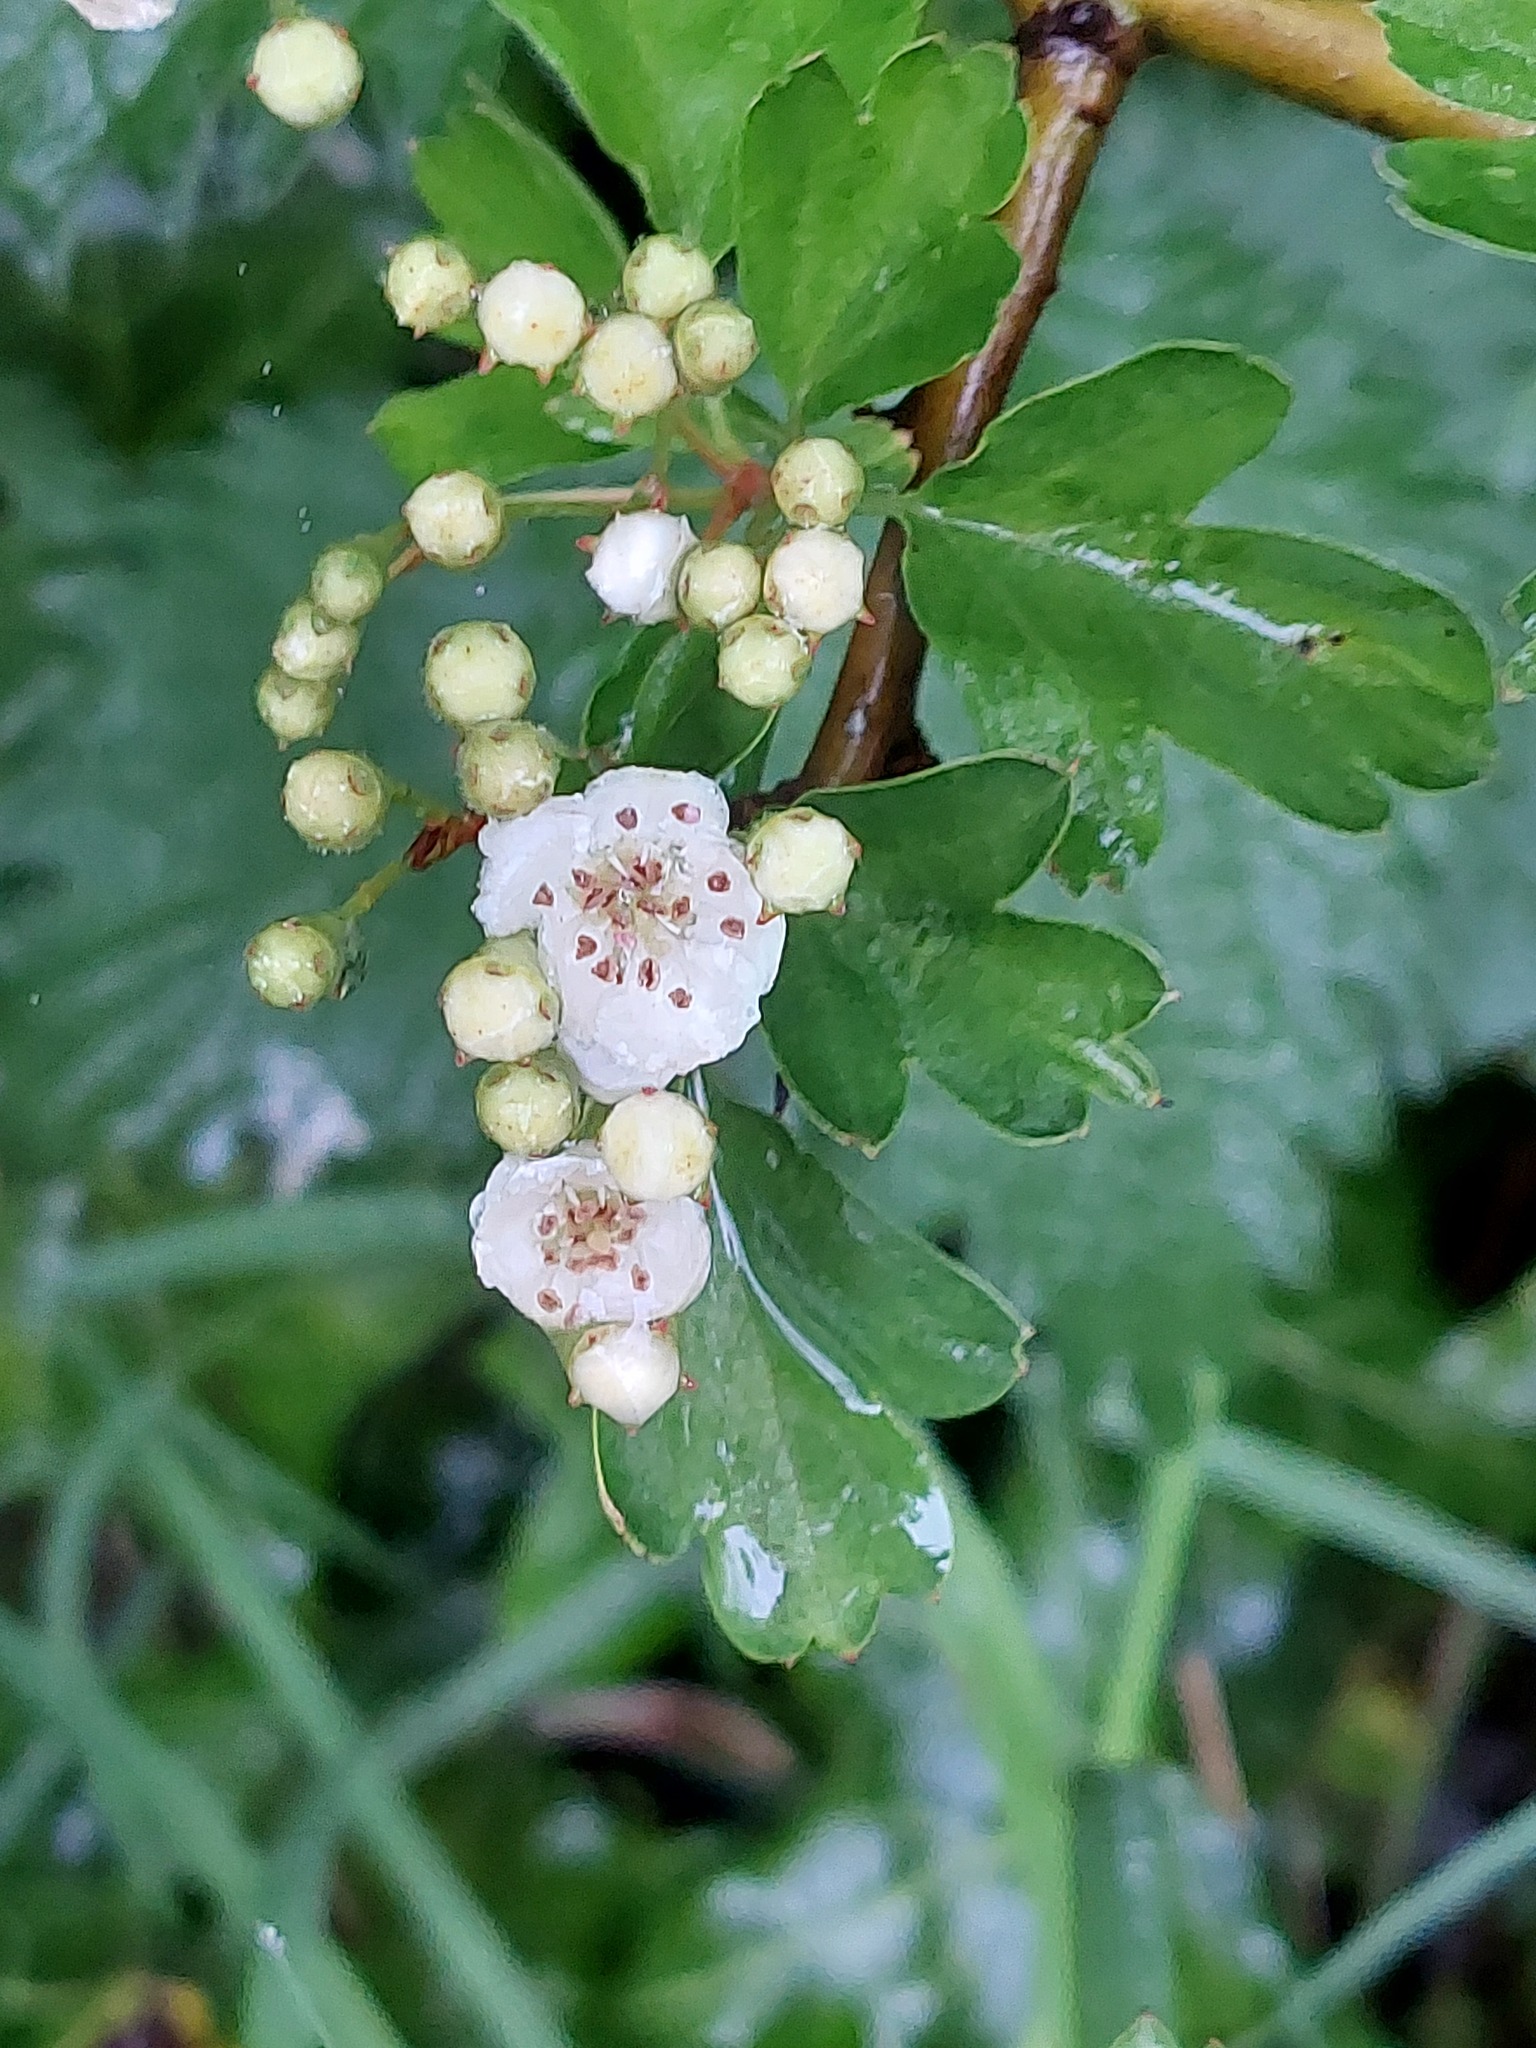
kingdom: Plantae
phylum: Tracheophyta
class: Magnoliopsida
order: Rosales
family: Rosaceae
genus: Crataegus
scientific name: Crataegus monogyna
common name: Hawthorn
